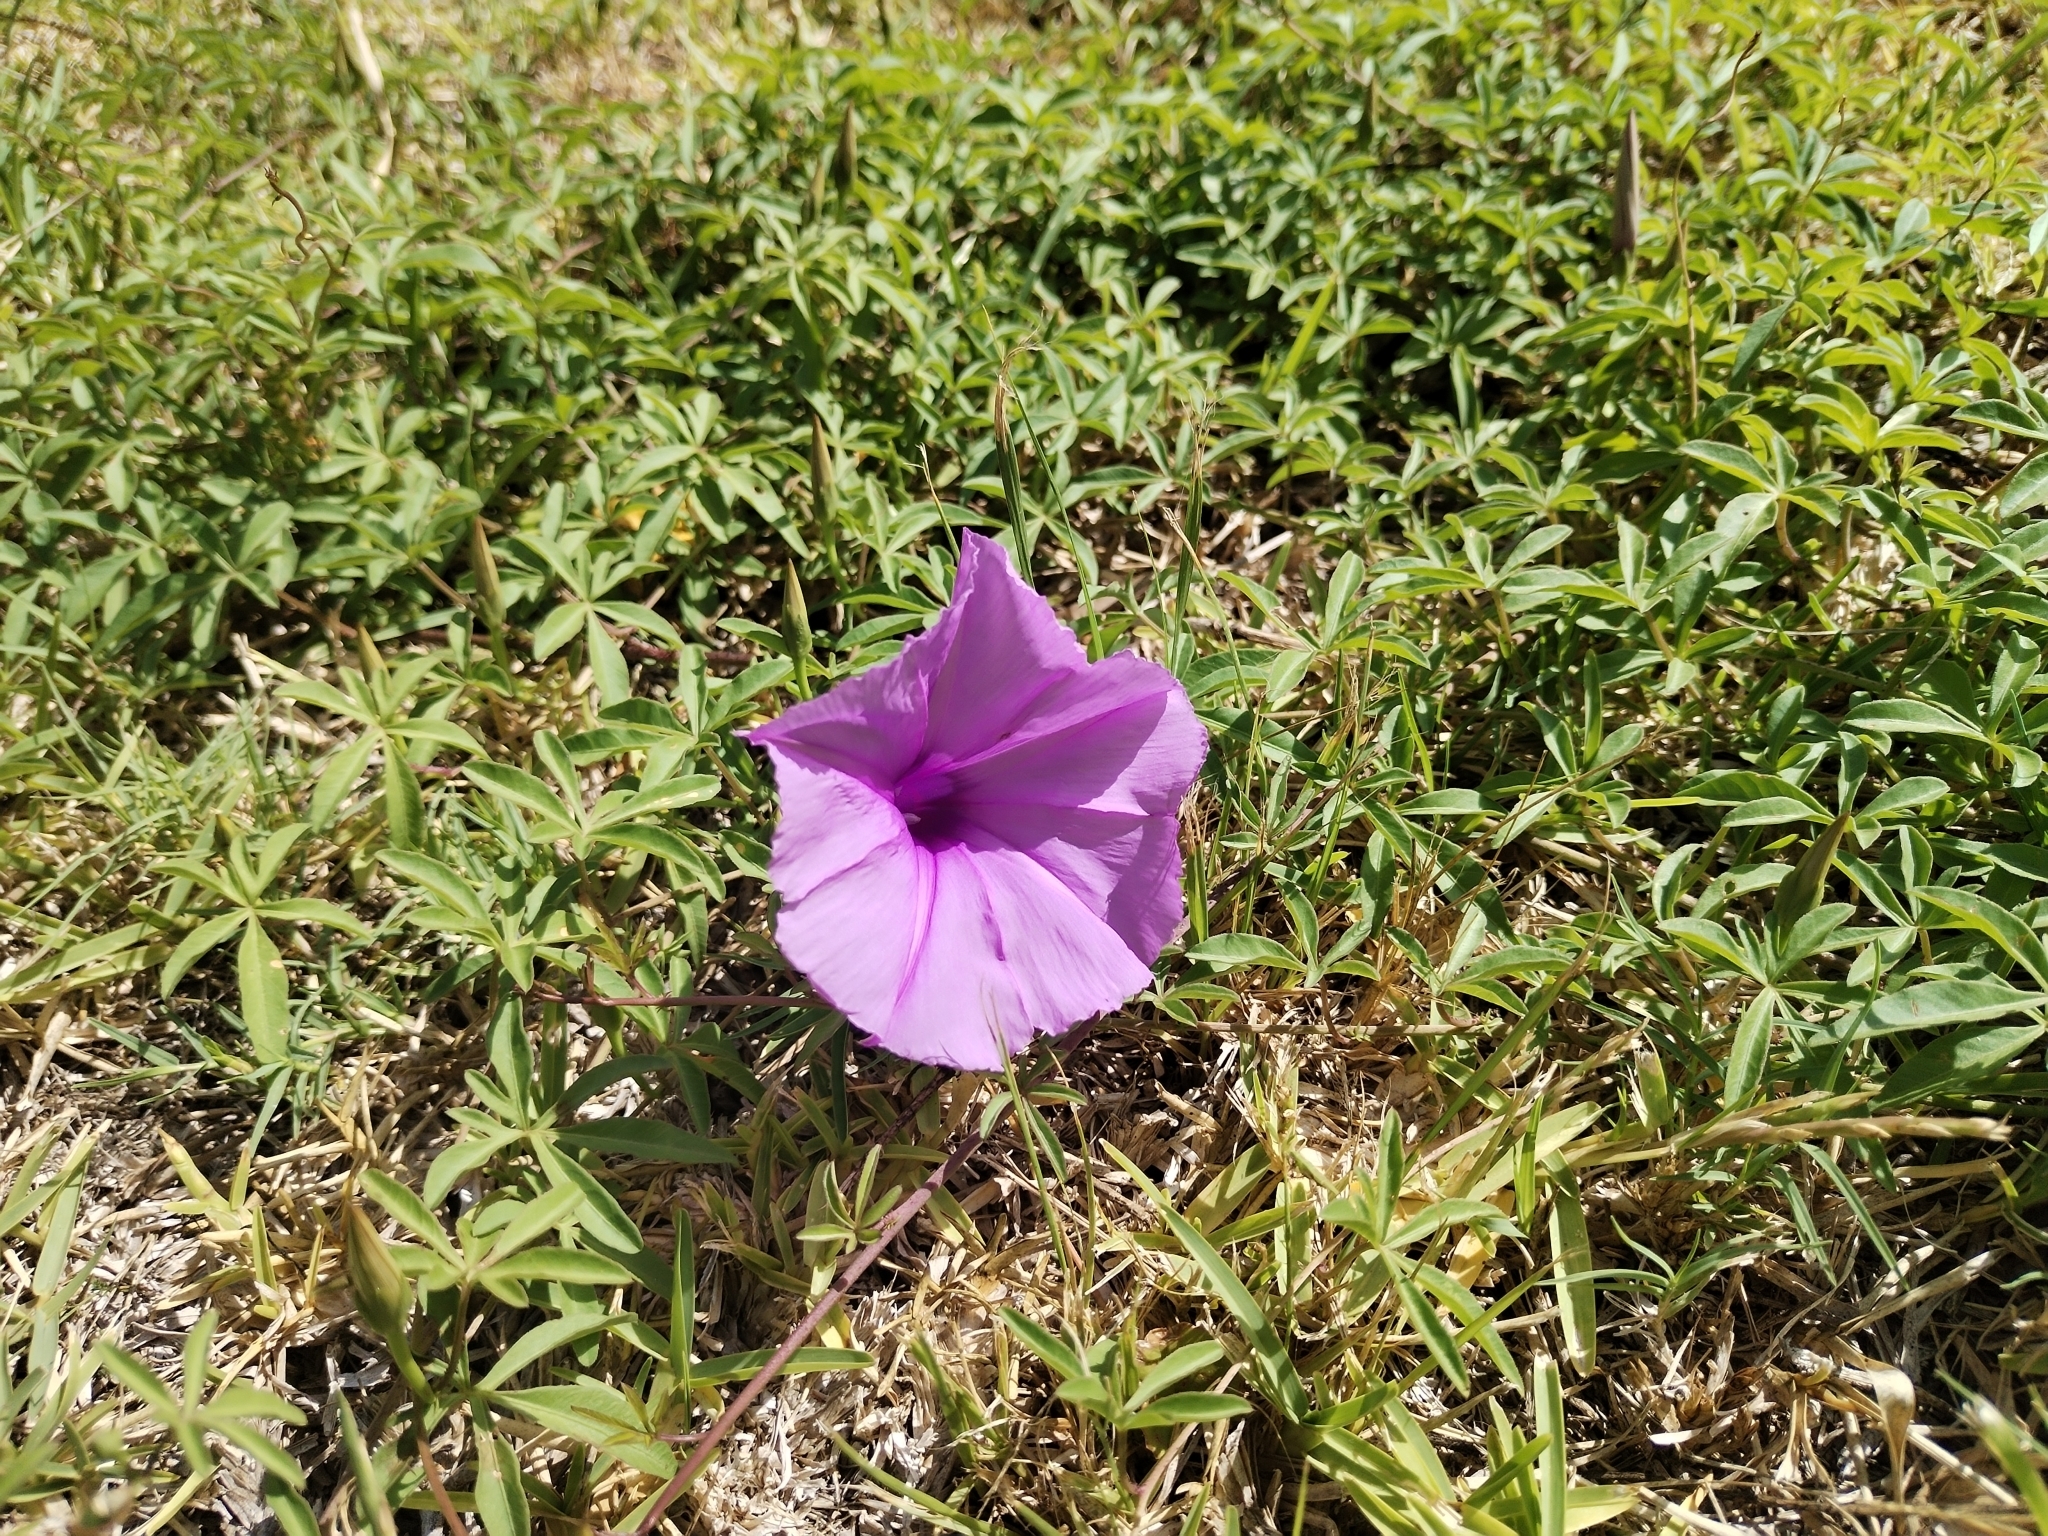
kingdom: Plantae
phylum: Tracheophyta
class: Magnoliopsida
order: Solanales
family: Convolvulaceae
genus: Ipomoea
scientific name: Ipomoea cairica
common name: Mile a minute vine
